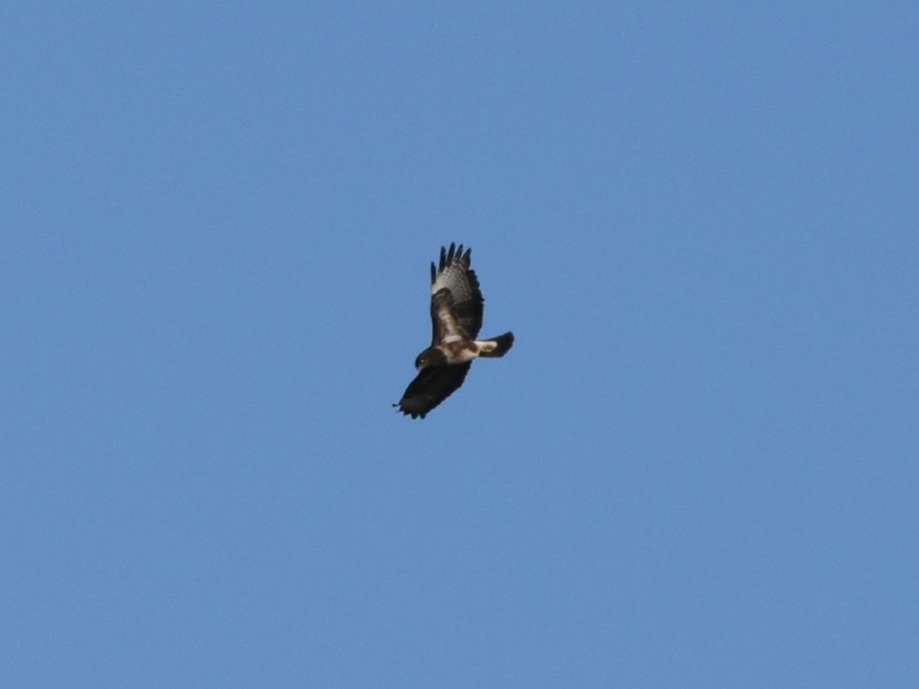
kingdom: Animalia
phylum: Chordata
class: Aves
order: Accipitriformes
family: Accipitridae
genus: Buteo
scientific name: Buteo buteo
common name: Common buzzard
